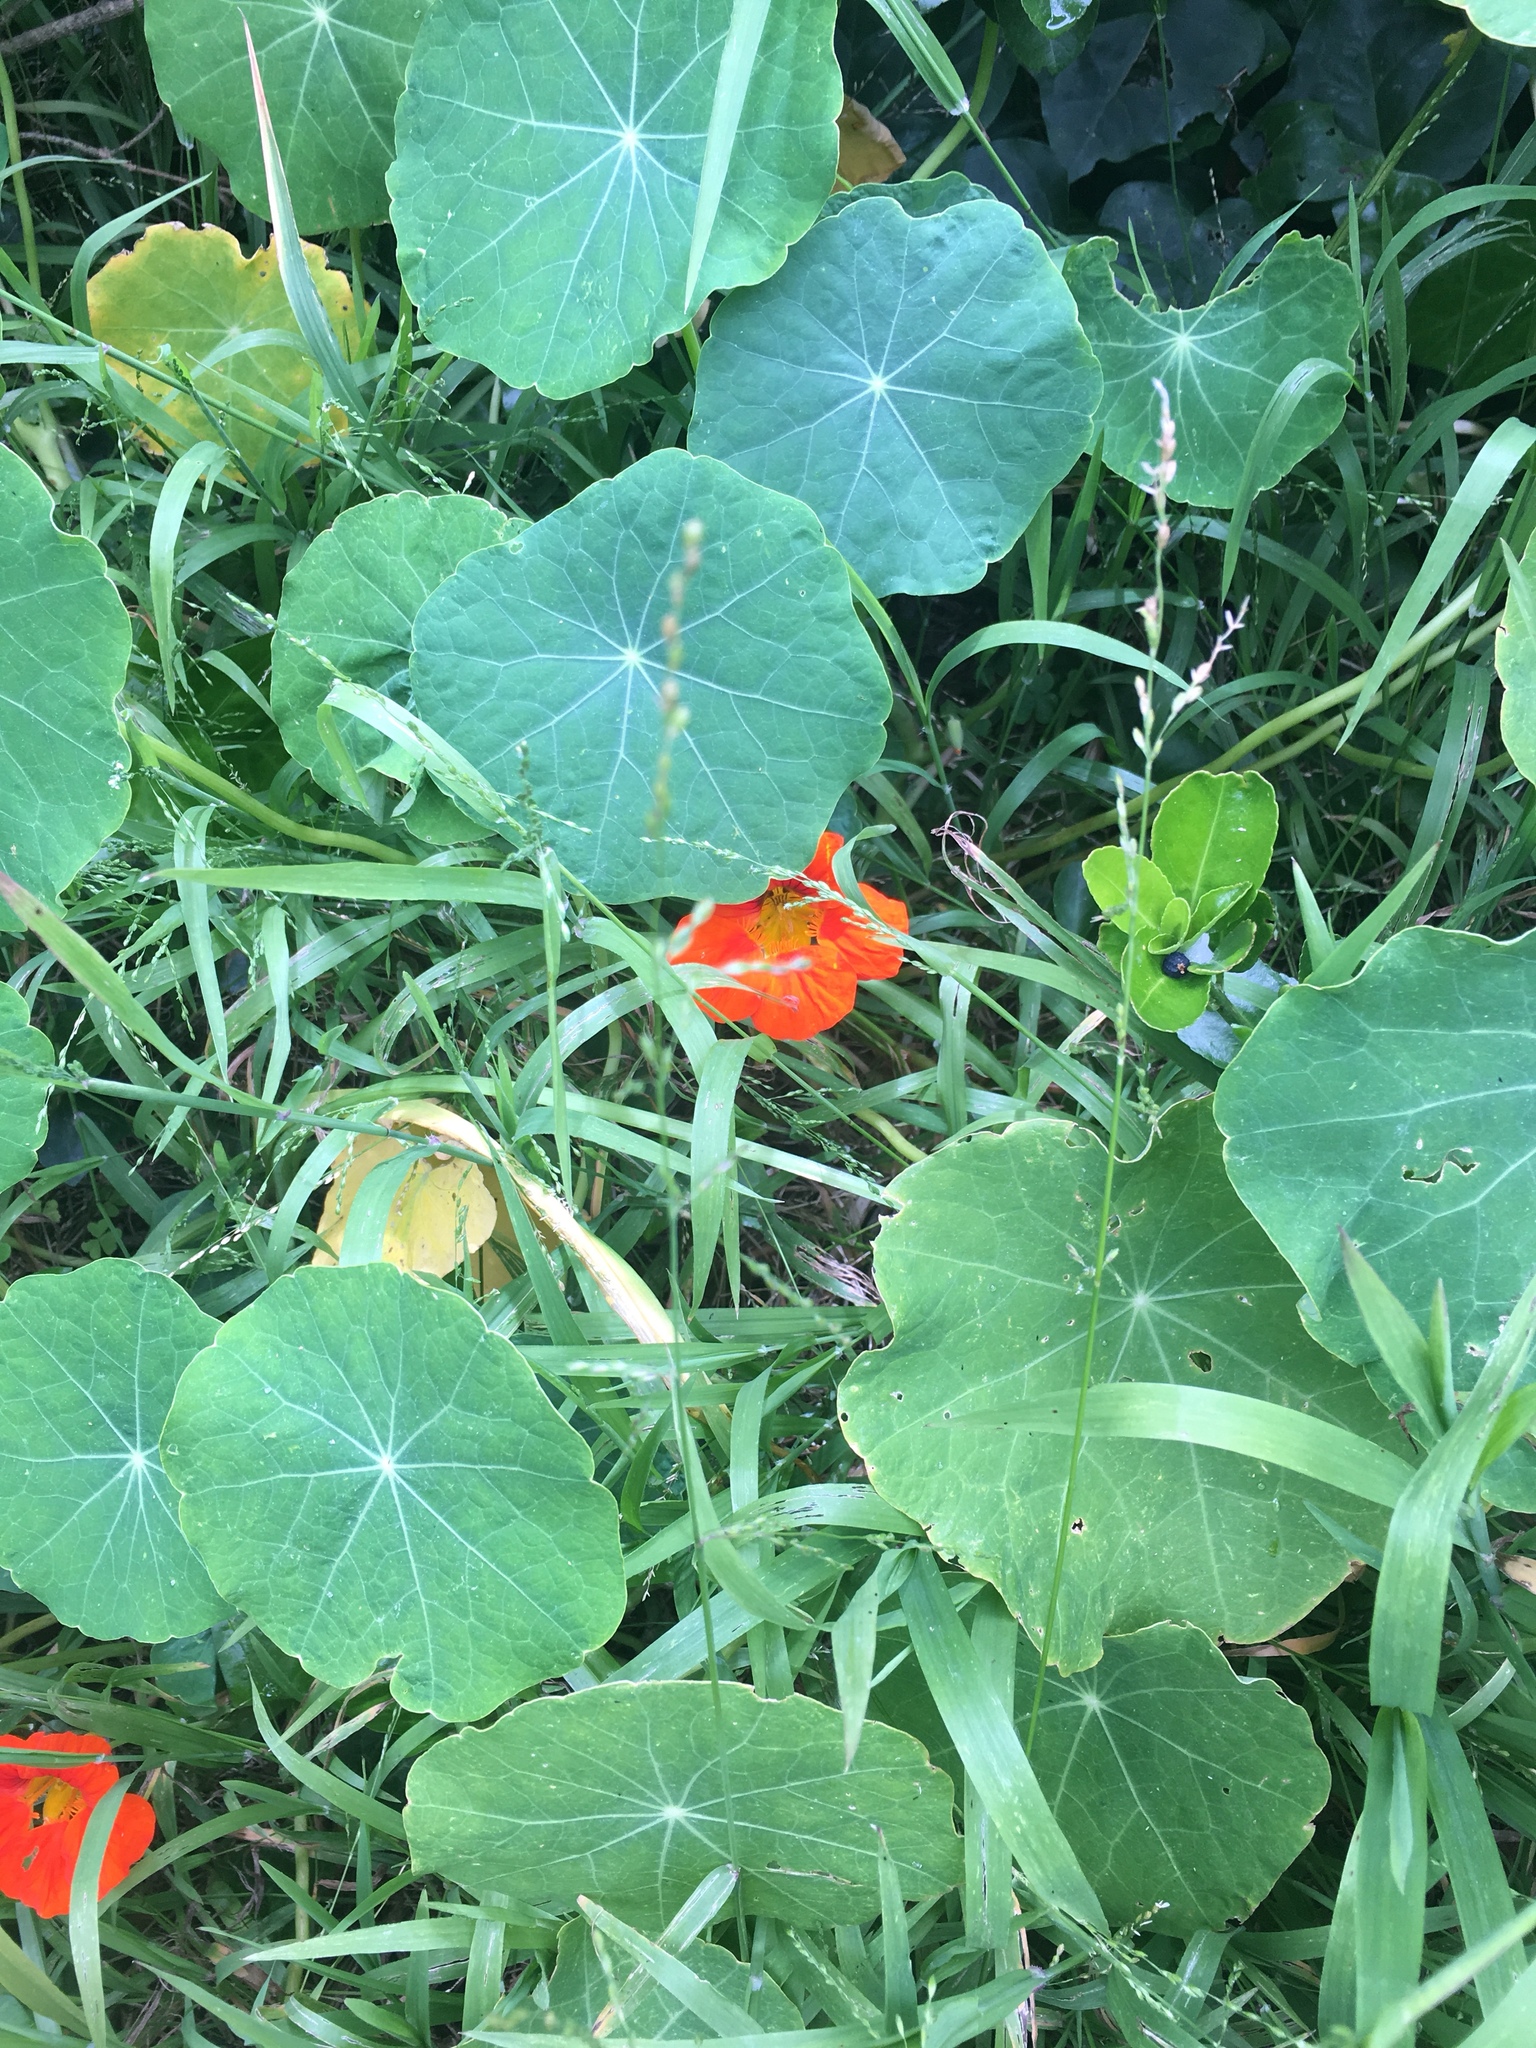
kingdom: Plantae
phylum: Tracheophyta
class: Magnoliopsida
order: Brassicales
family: Tropaeolaceae
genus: Tropaeolum
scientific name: Tropaeolum majus
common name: Nasturtium
